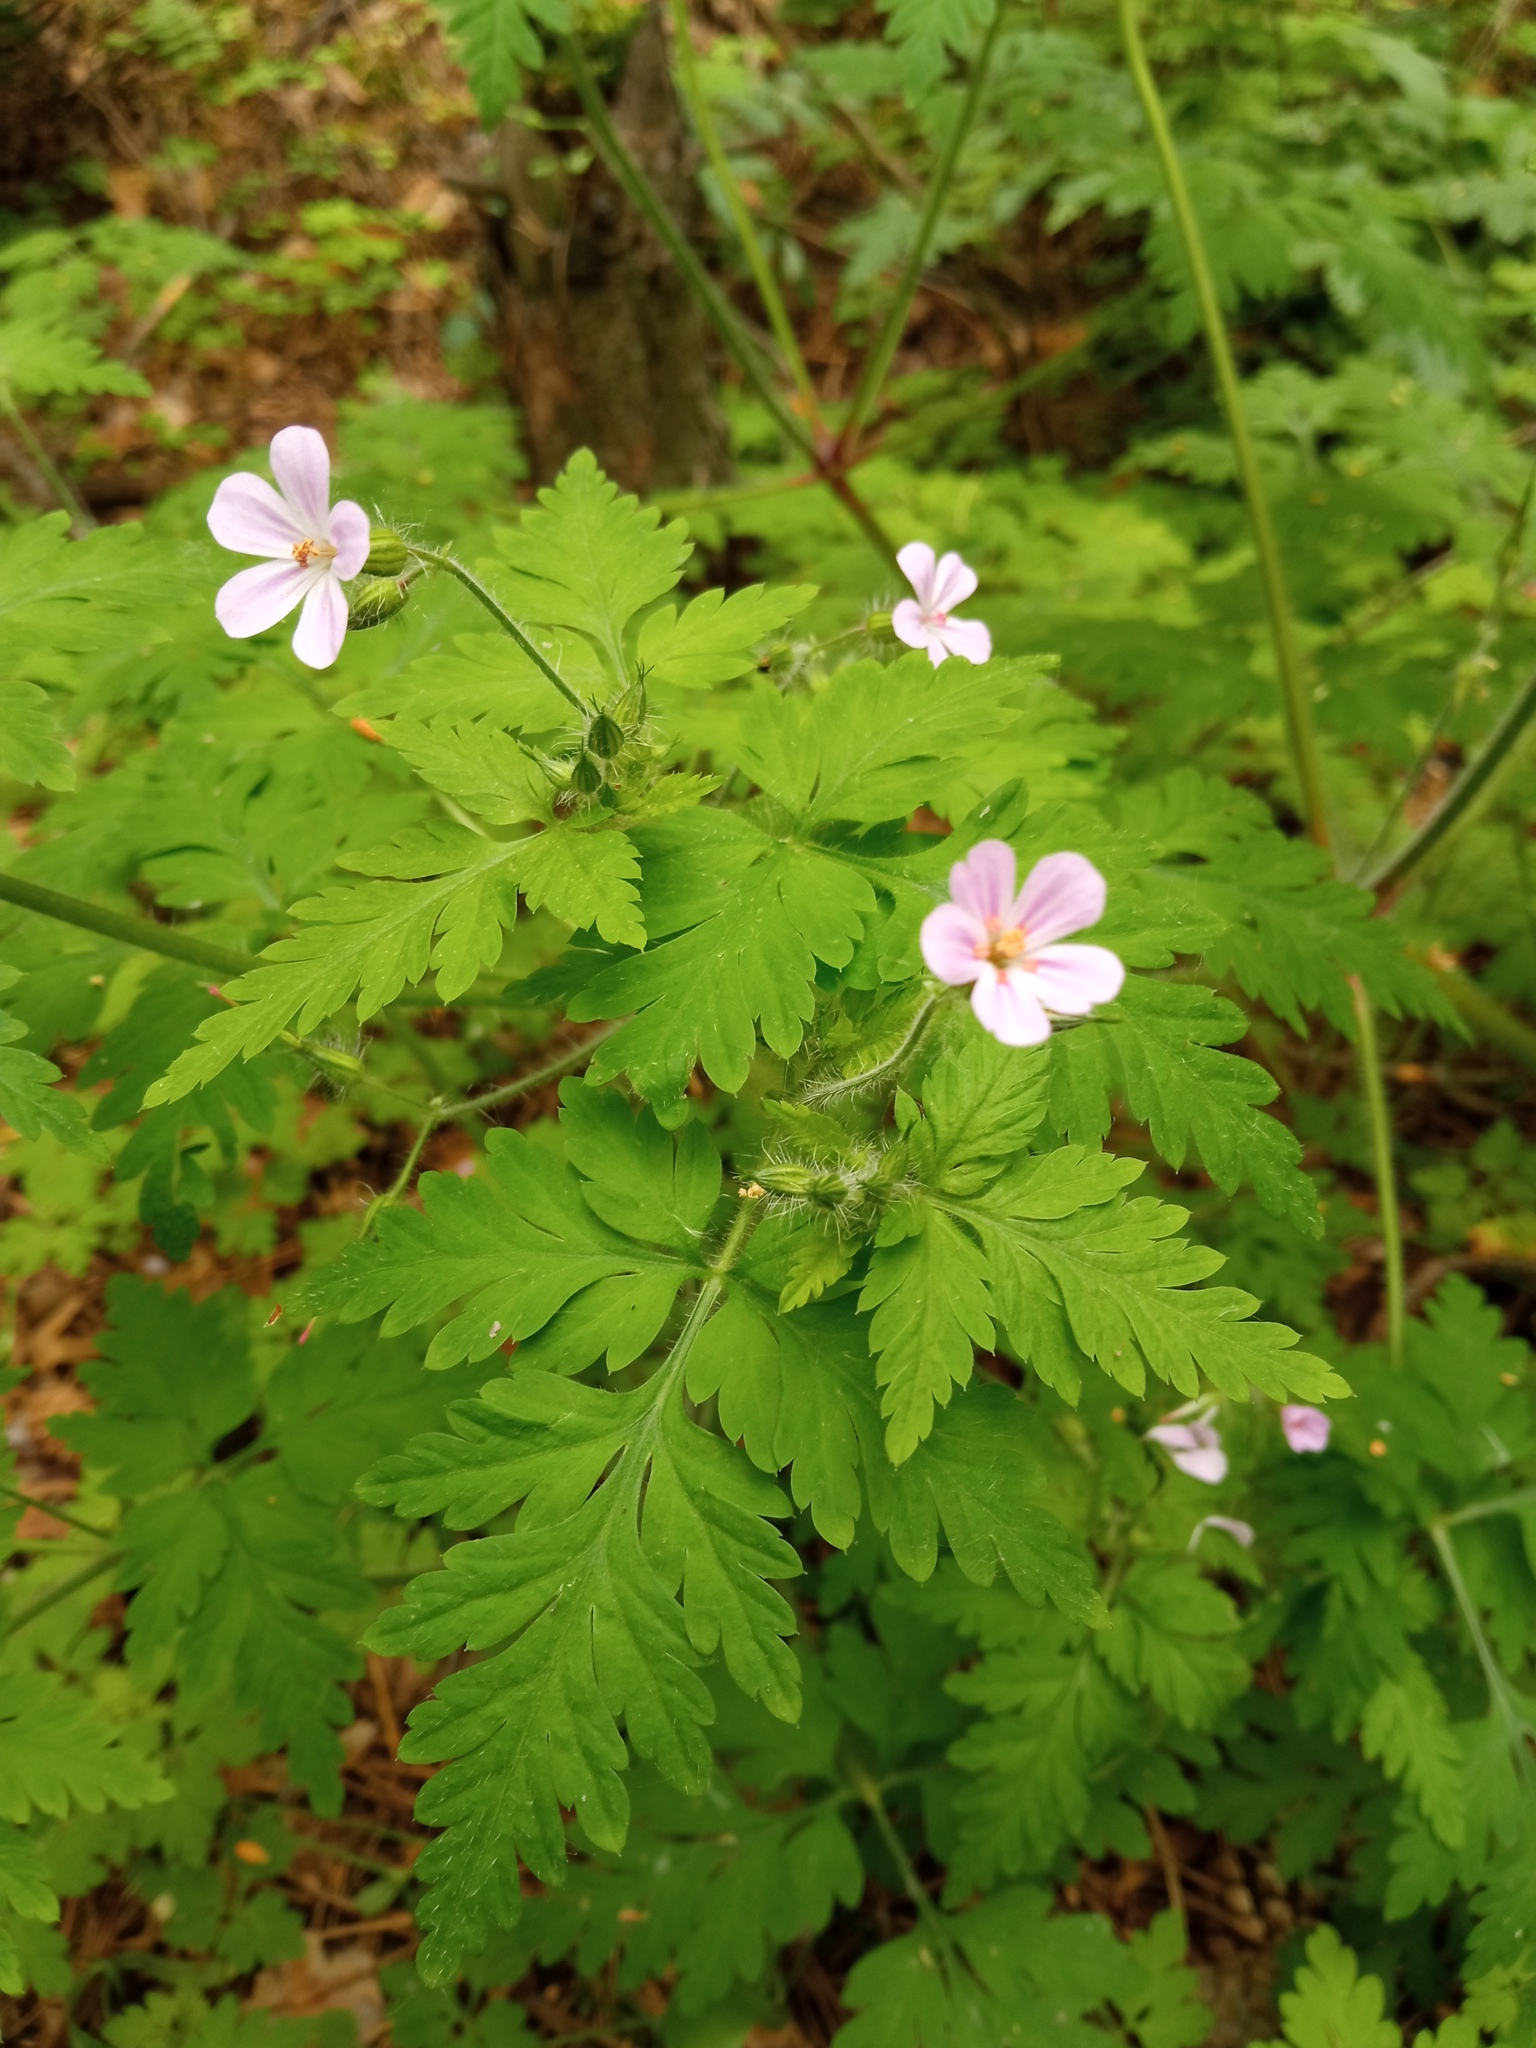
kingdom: Plantae
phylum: Tracheophyta
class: Magnoliopsida
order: Geraniales
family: Geraniaceae
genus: Geranium
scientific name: Geranium robertianum
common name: Herb-robert
